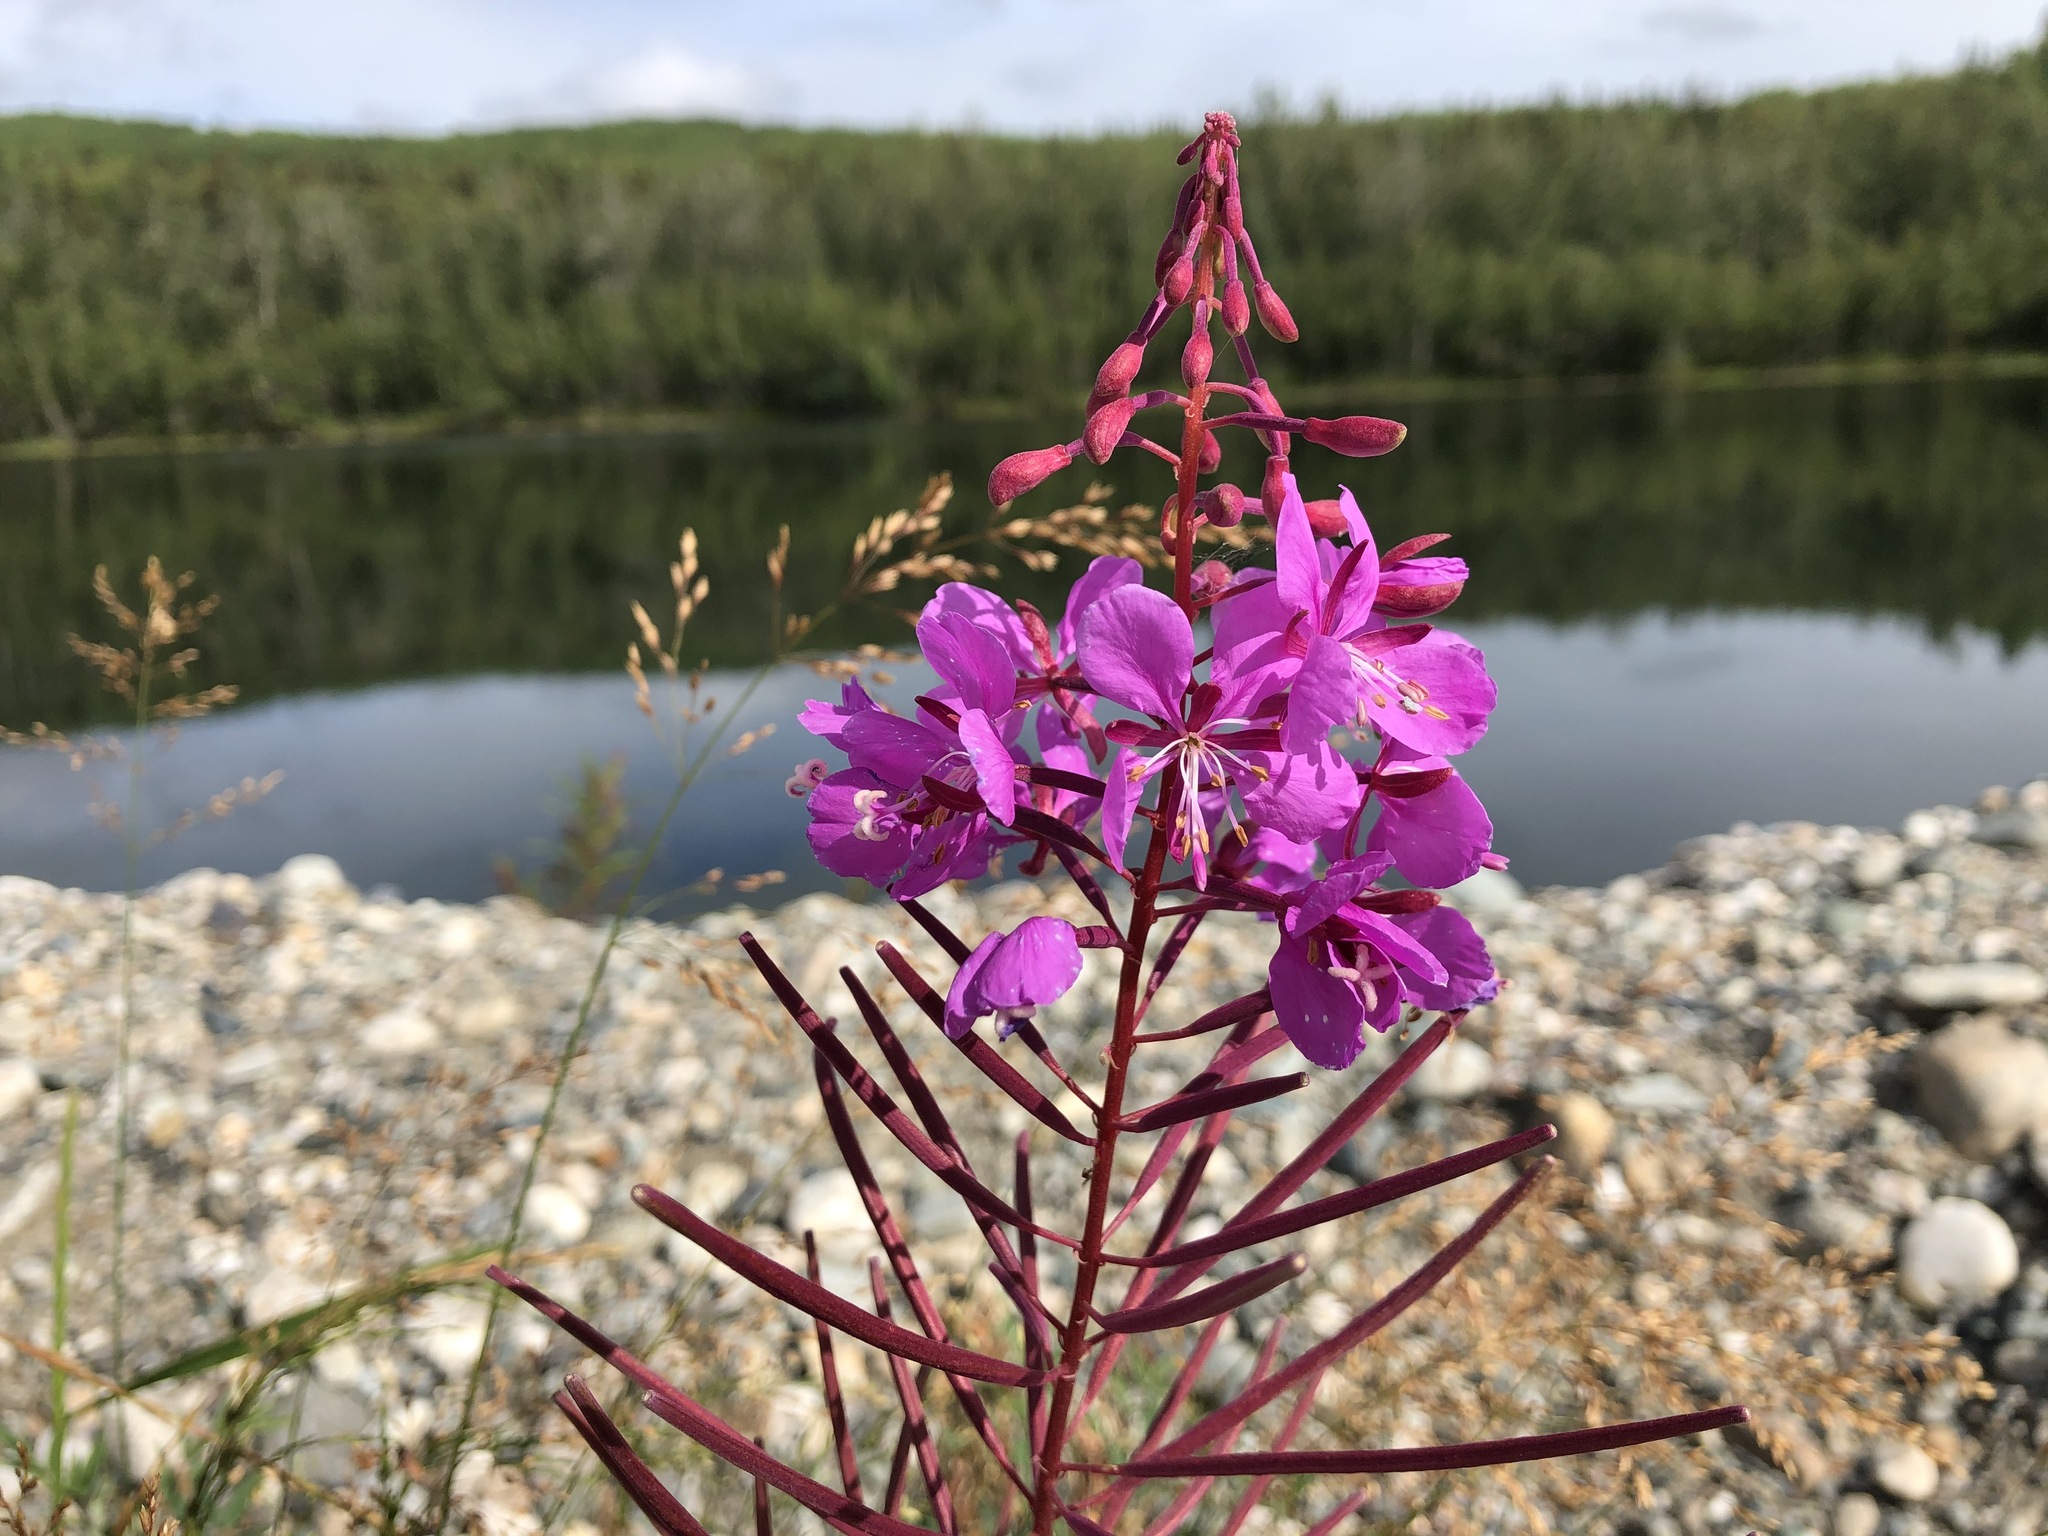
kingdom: Plantae
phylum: Tracheophyta
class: Magnoliopsida
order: Myrtales
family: Onagraceae
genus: Chamaenerion
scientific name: Chamaenerion angustifolium
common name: Fireweed
